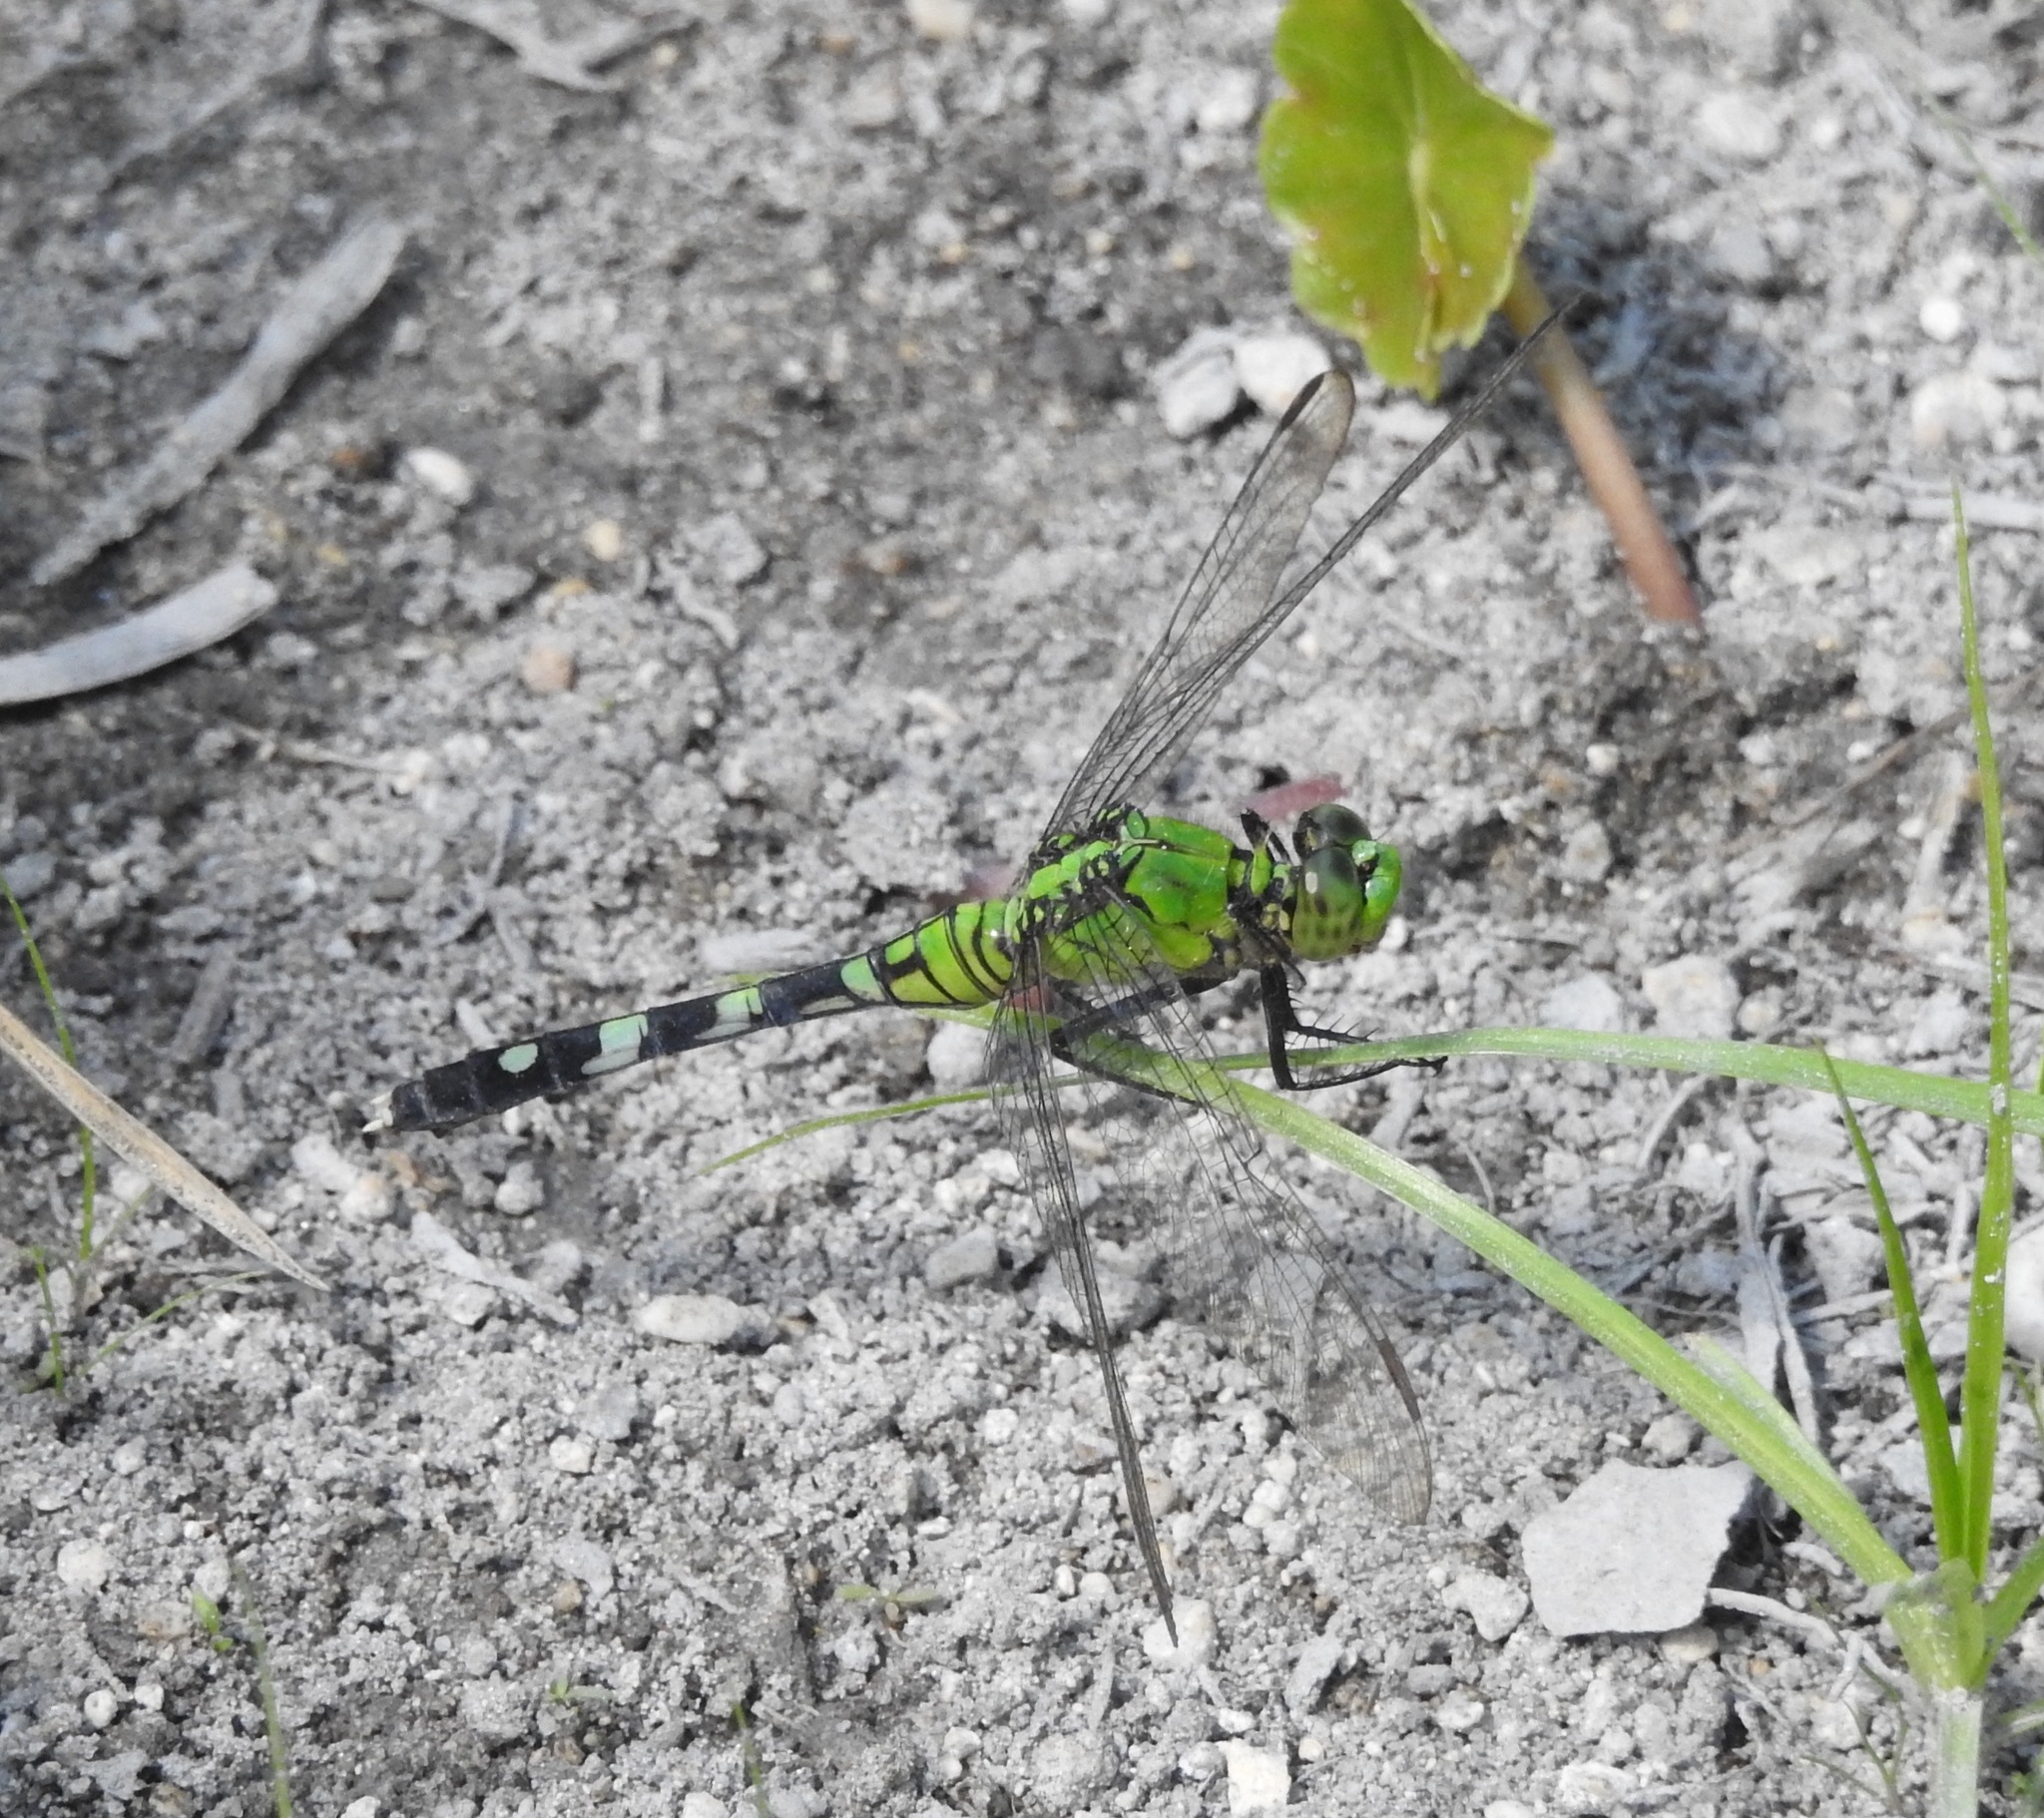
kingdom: Animalia
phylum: Arthropoda
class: Insecta
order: Odonata
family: Libellulidae
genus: Erythemis
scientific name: Erythemis simplicicollis
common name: Eastern pondhawk
